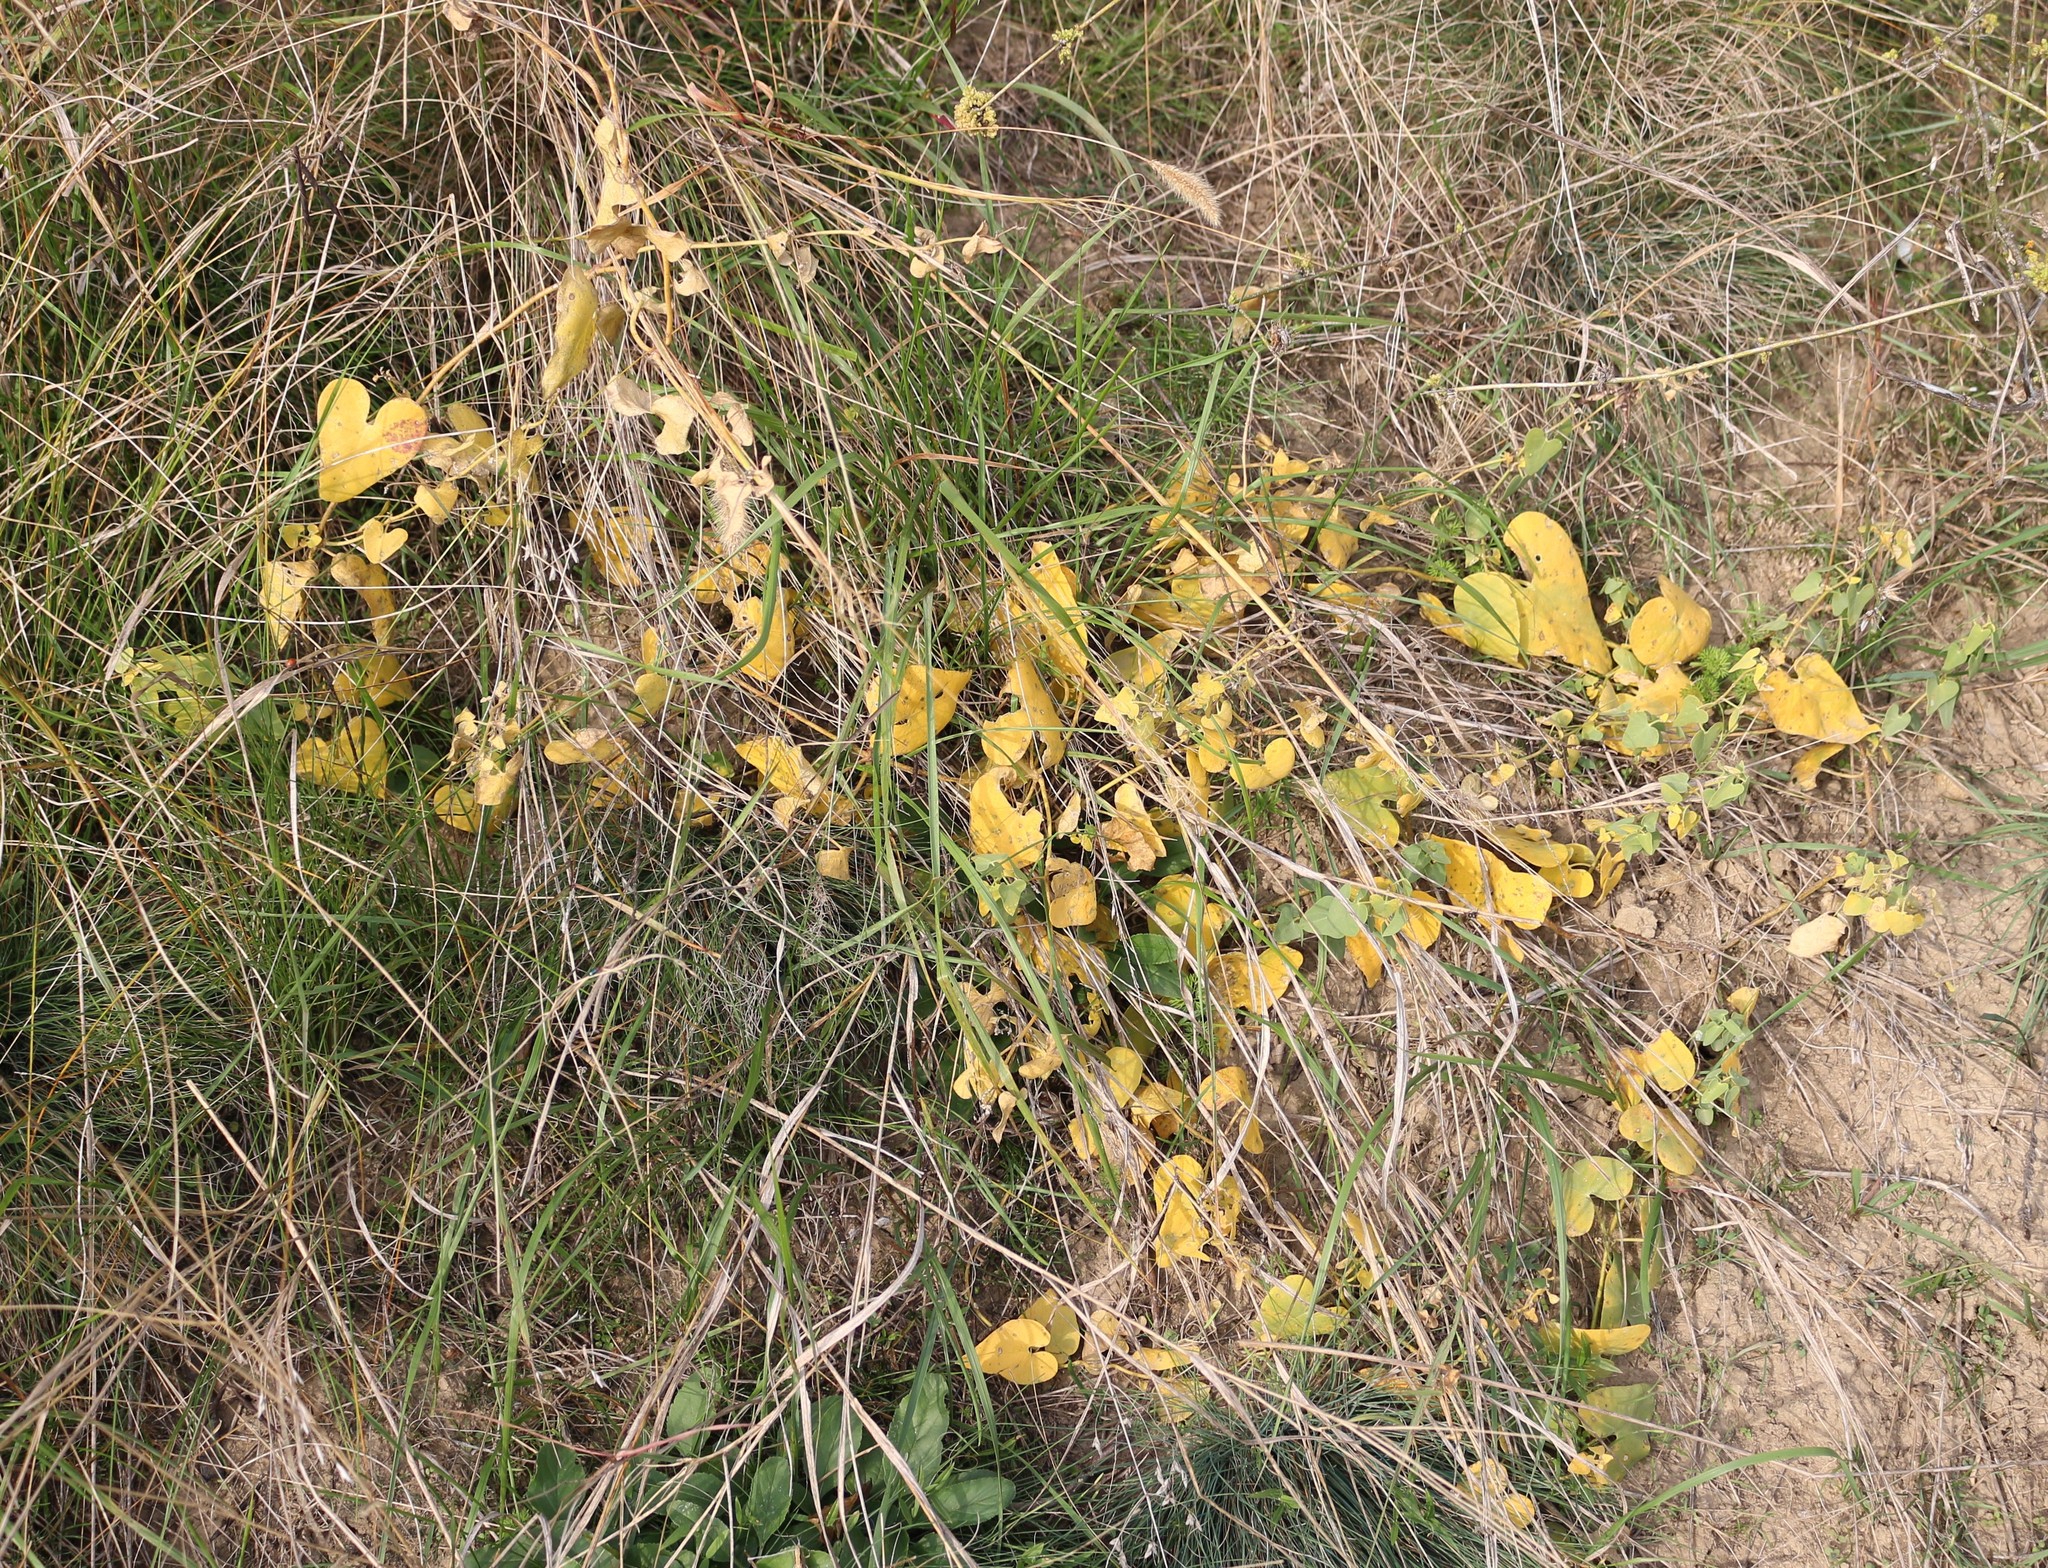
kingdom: Plantae
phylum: Tracheophyta
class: Magnoliopsida
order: Gentianales
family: Apocynaceae
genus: Cynanchum
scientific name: Cynanchum acutum
